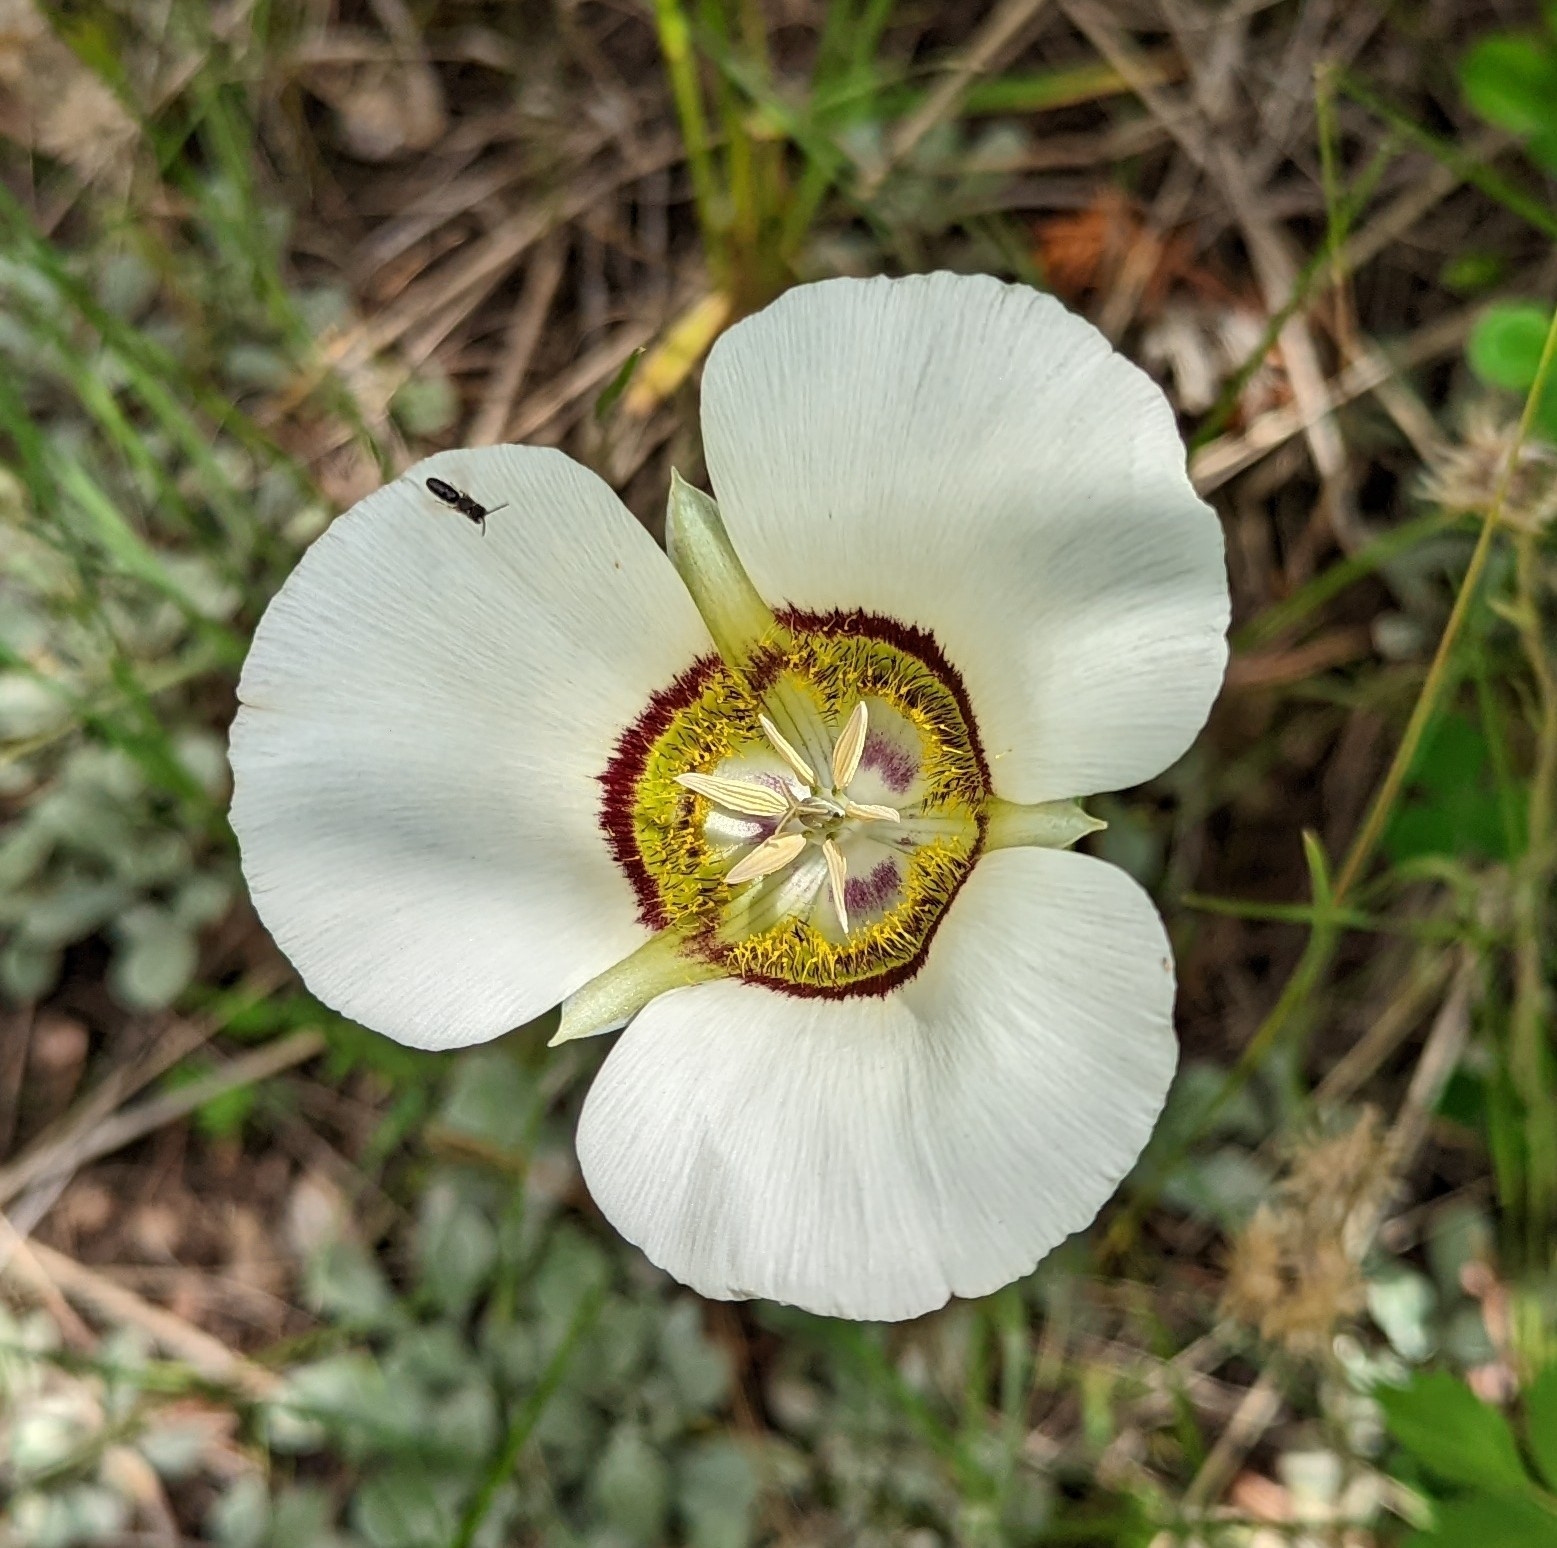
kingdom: Plantae
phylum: Tracheophyta
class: Liliopsida
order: Liliales
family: Liliaceae
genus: Calochortus
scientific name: Calochortus gunnisonii
